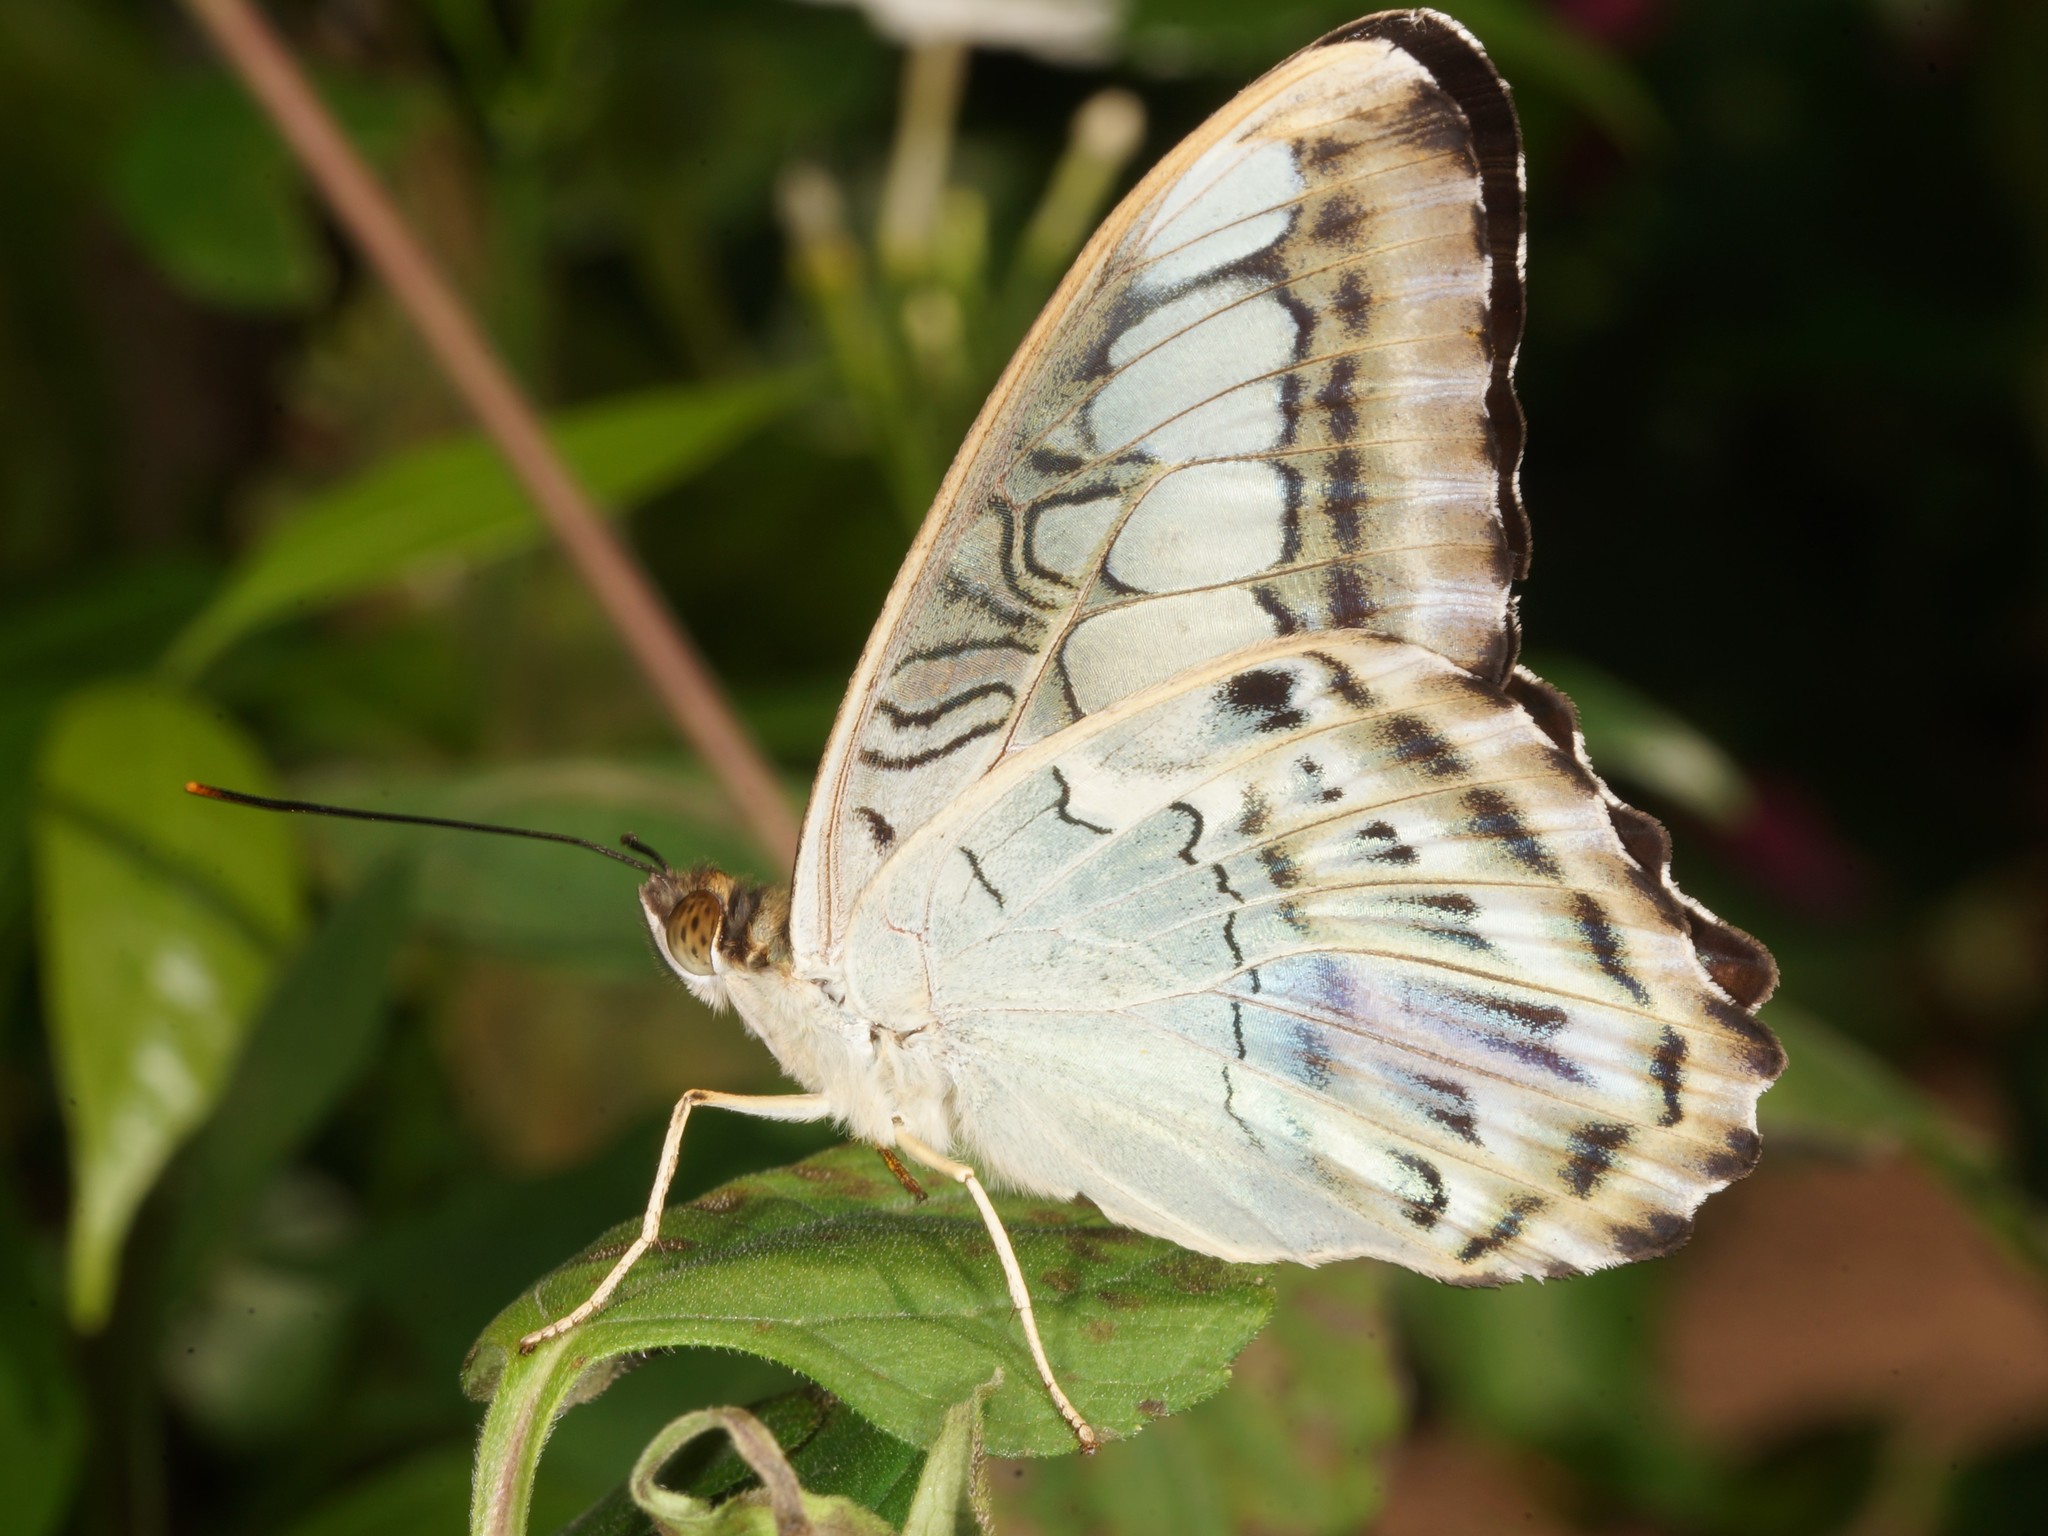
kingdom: Animalia
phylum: Arthropoda
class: Insecta
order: Lepidoptera
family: Nymphalidae
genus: Kallima
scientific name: Kallima sylvia
